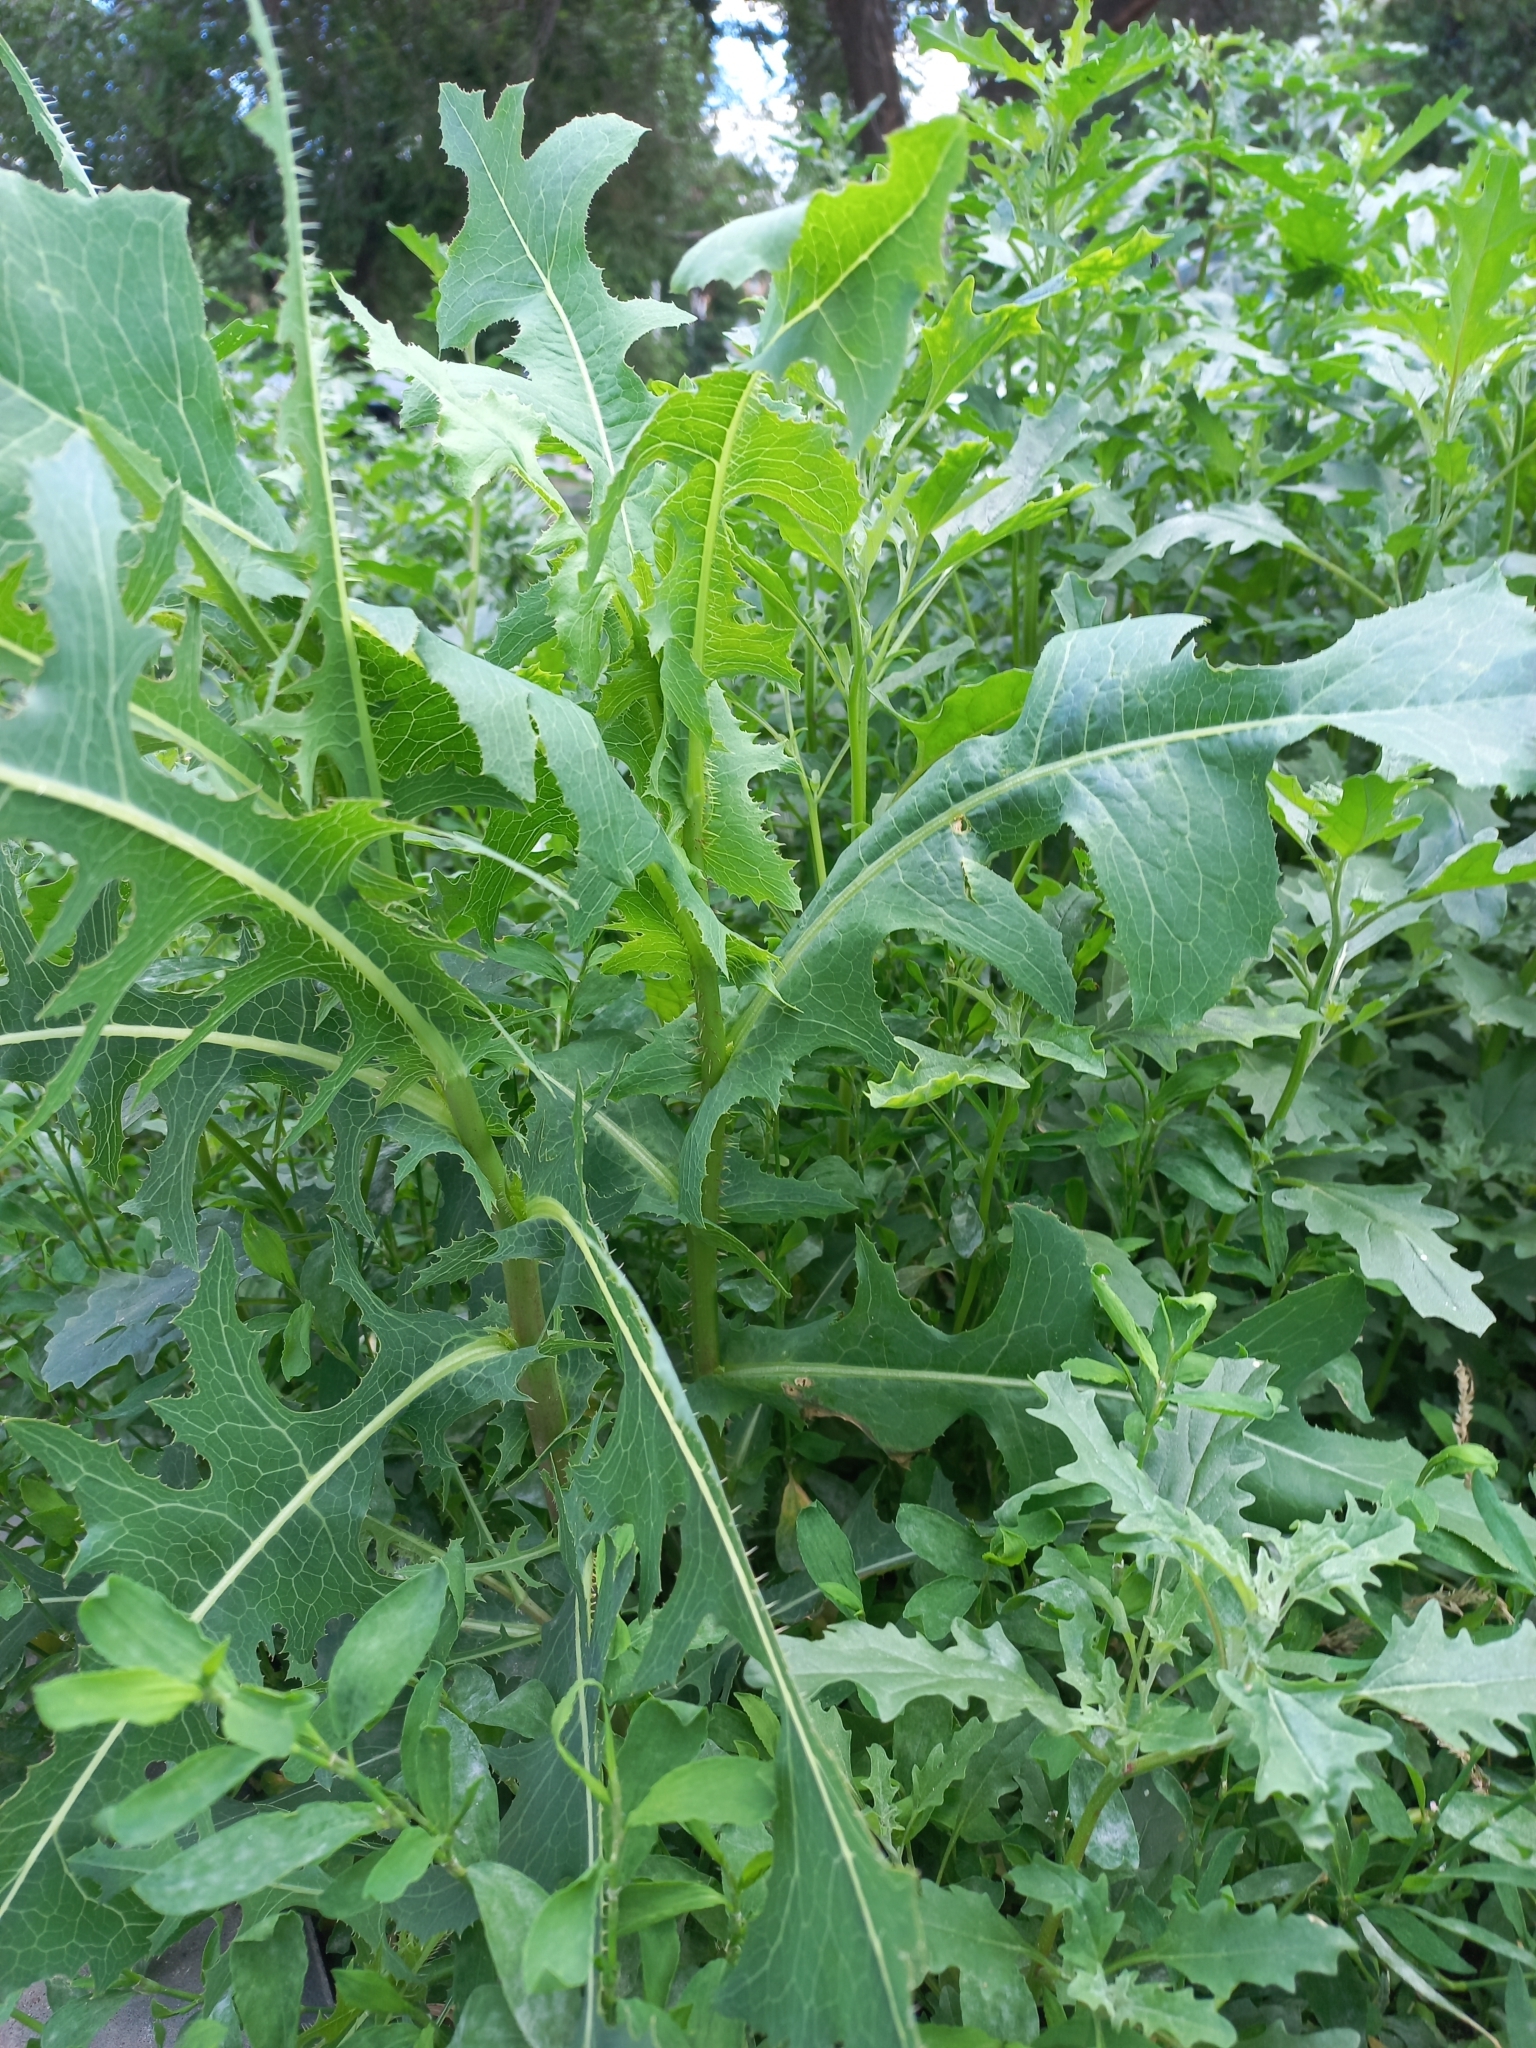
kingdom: Plantae
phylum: Tracheophyta
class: Magnoliopsida
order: Asterales
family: Asteraceae
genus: Lactuca
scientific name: Lactuca serriola
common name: Prickly lettuce
